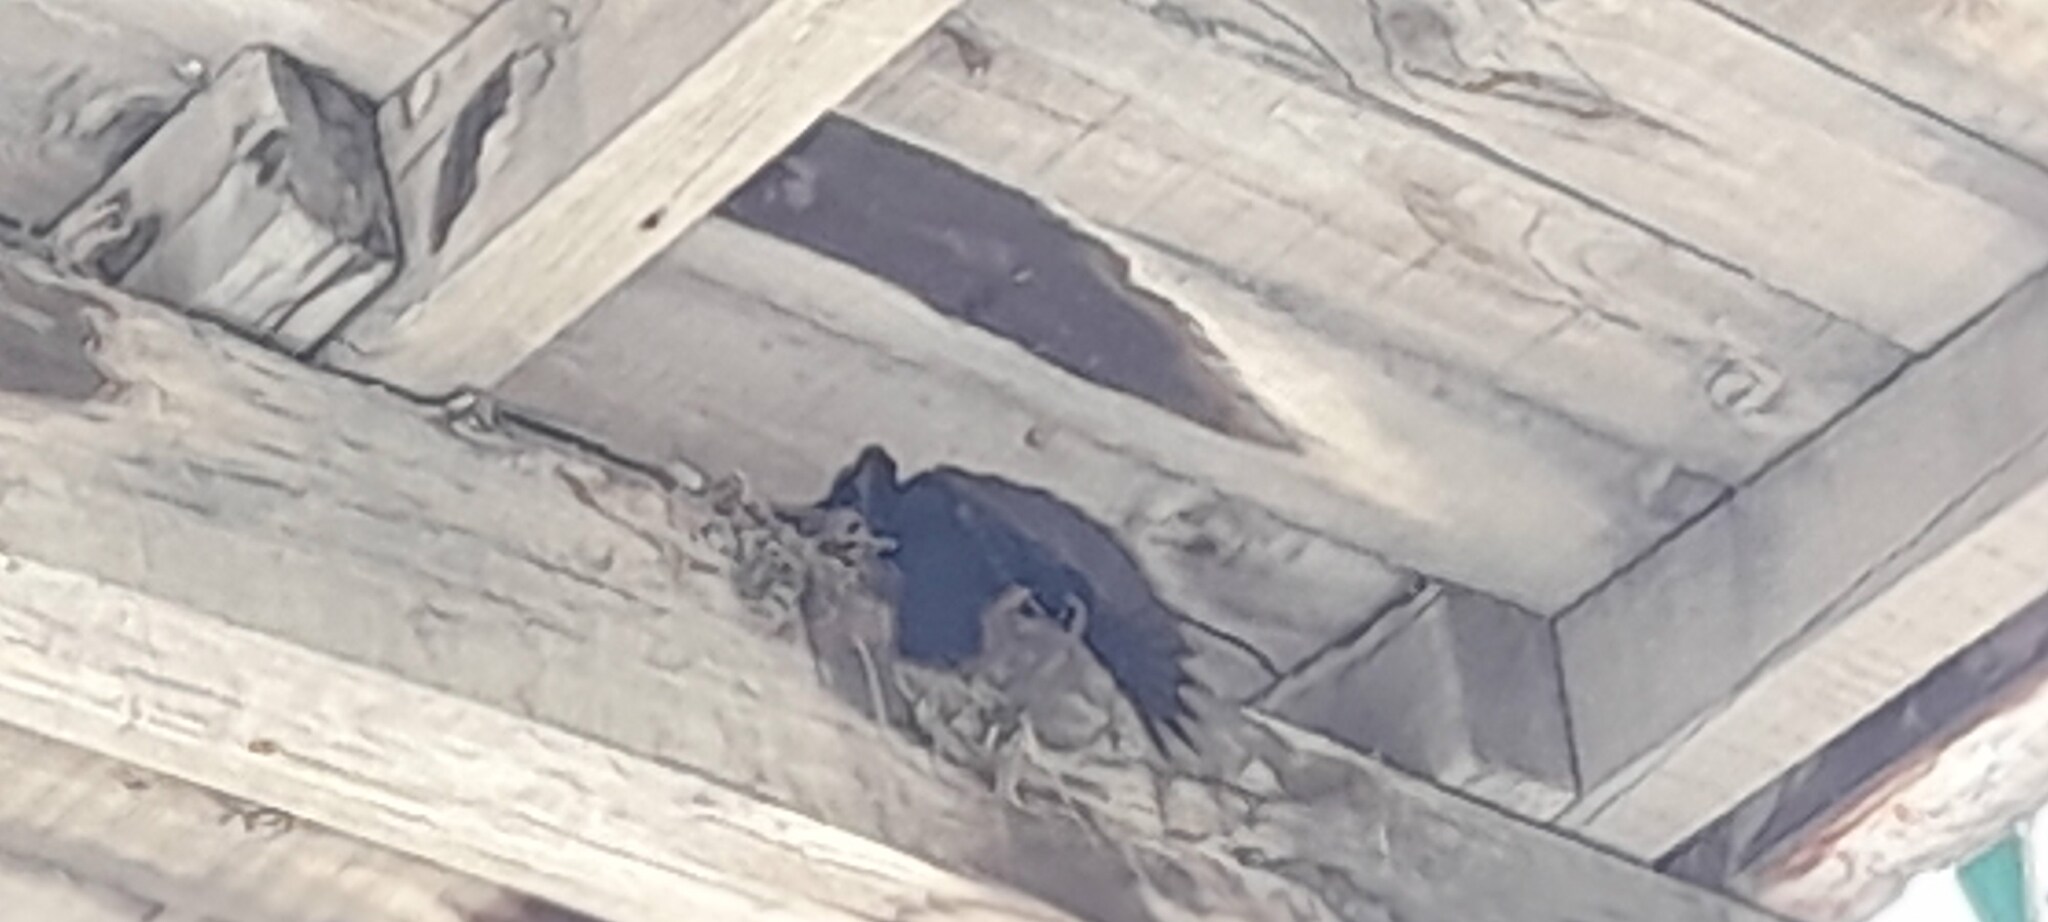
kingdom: Animalia
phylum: Chordata
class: Aves
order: Passeriformes
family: Muscicapidae
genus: Myophonus
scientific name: Myophonus caeruleus
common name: Blue whistling-thrush
